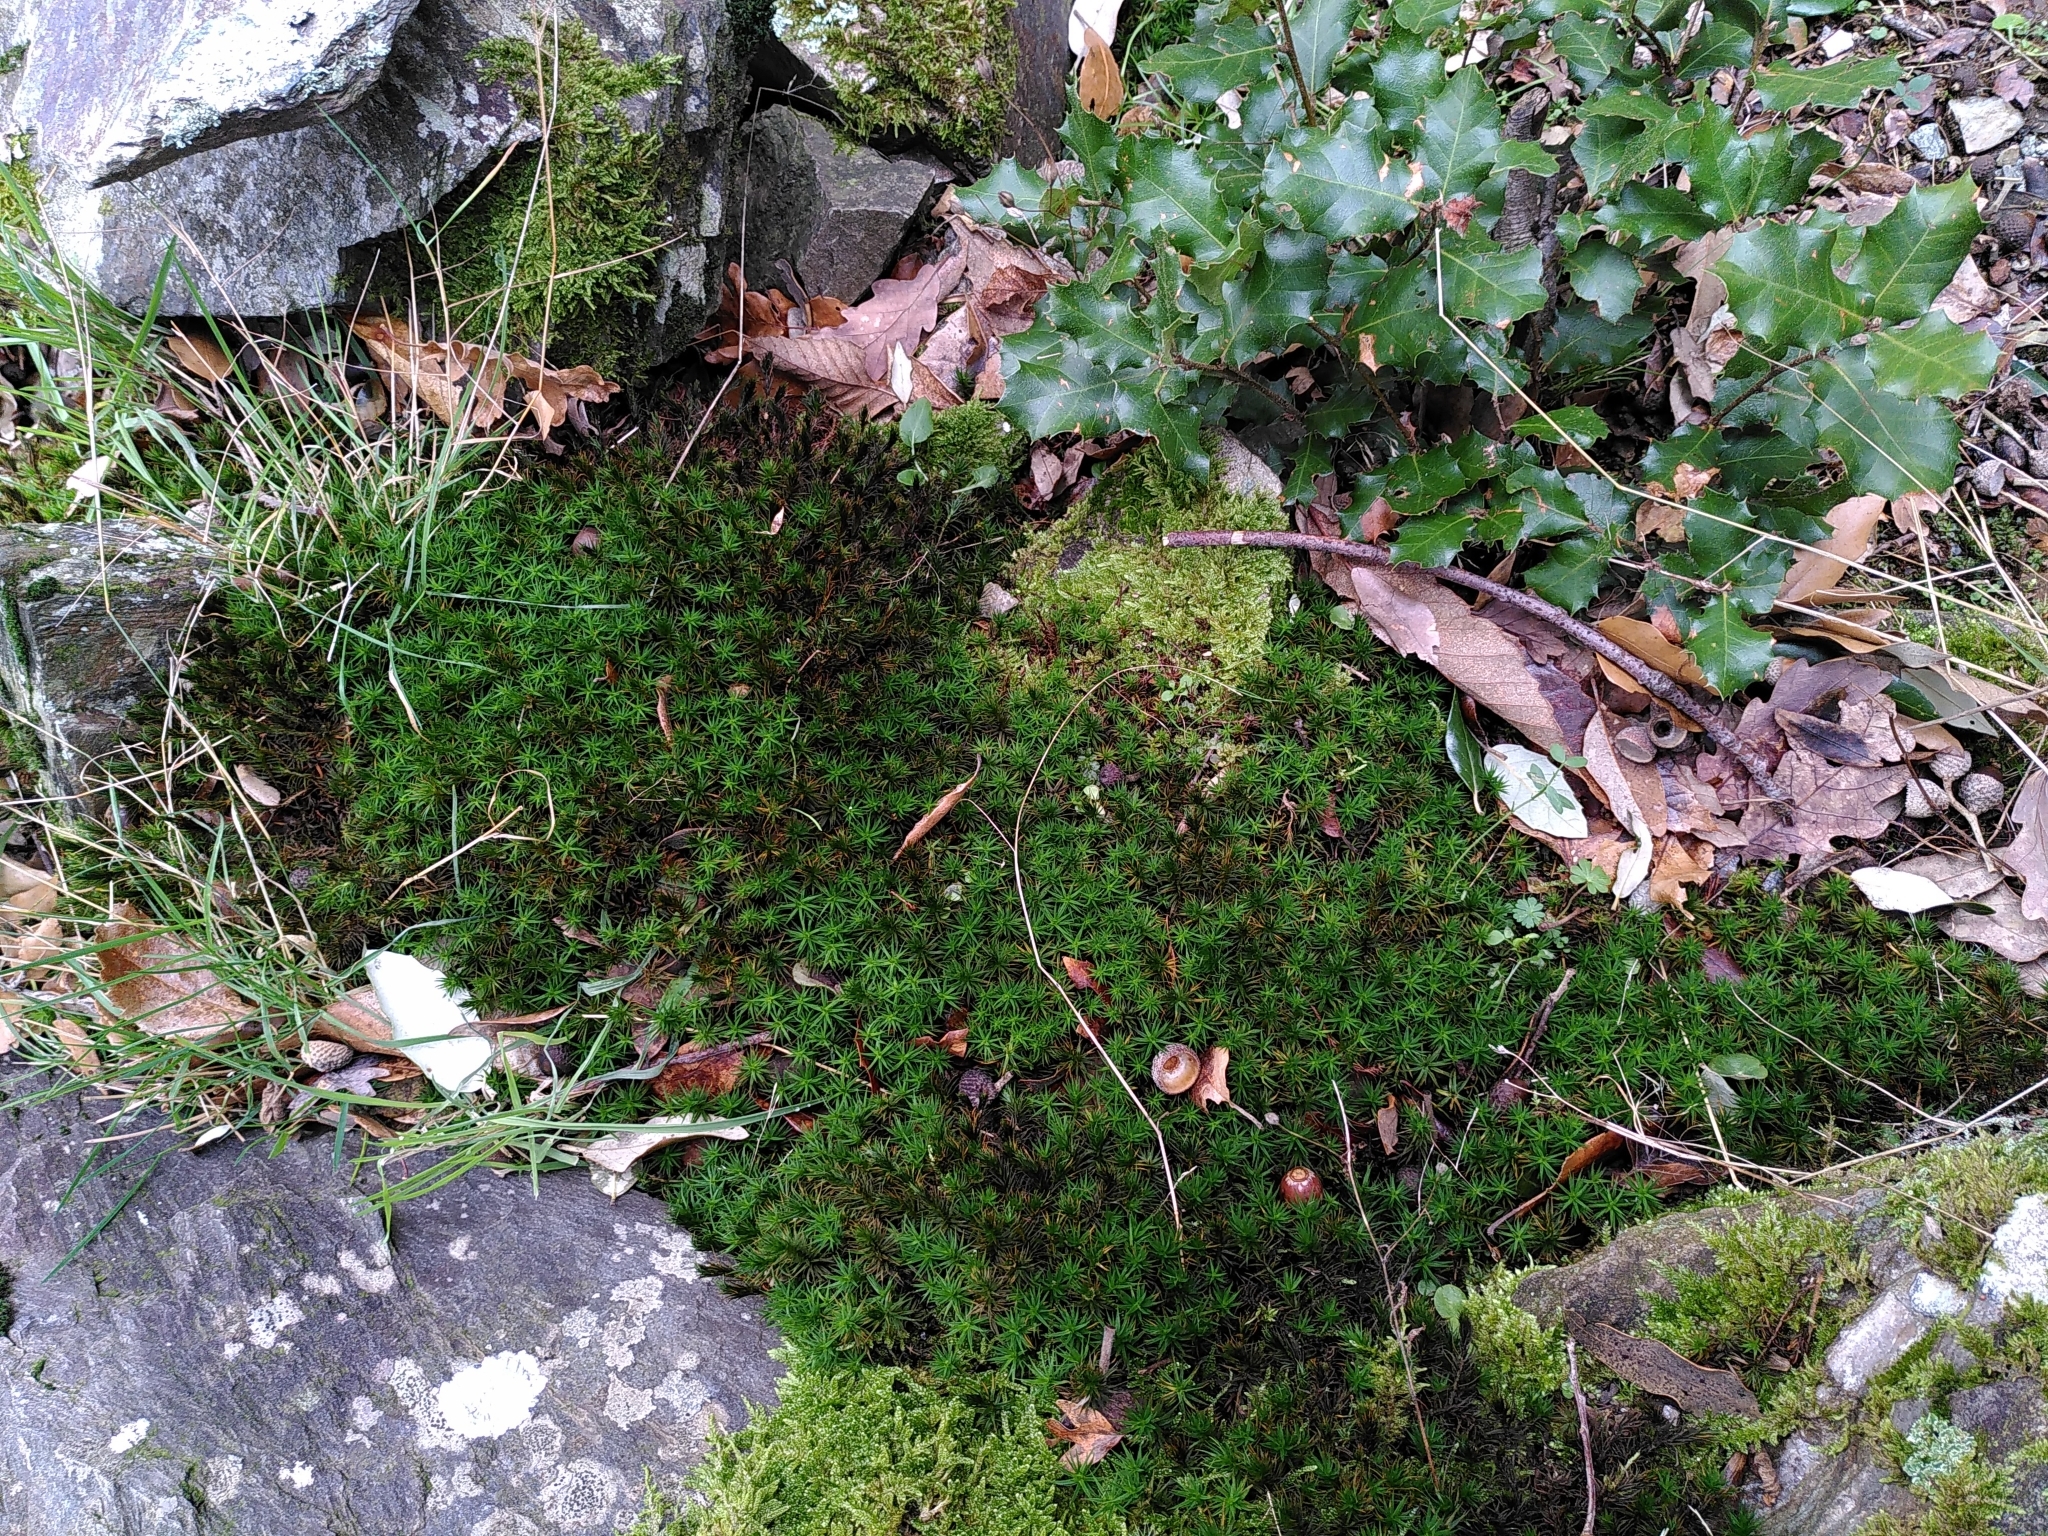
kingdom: Plantae
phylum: Bryophyta
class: Polytrichopsida
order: Polytrichales
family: Polytrichaceae
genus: Polytrichum
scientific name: Polytrichum formosum
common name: Bank haircap moss
